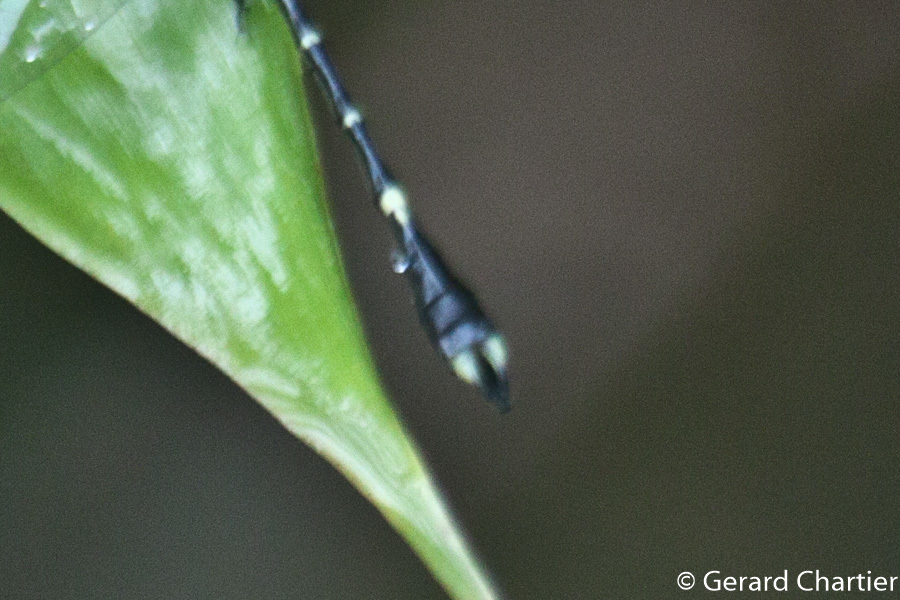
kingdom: Animalia
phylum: Arthropoda
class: Insecta
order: Odonata
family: Gomphidae
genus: Nepogomphus
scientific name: Nepogomphus walli
